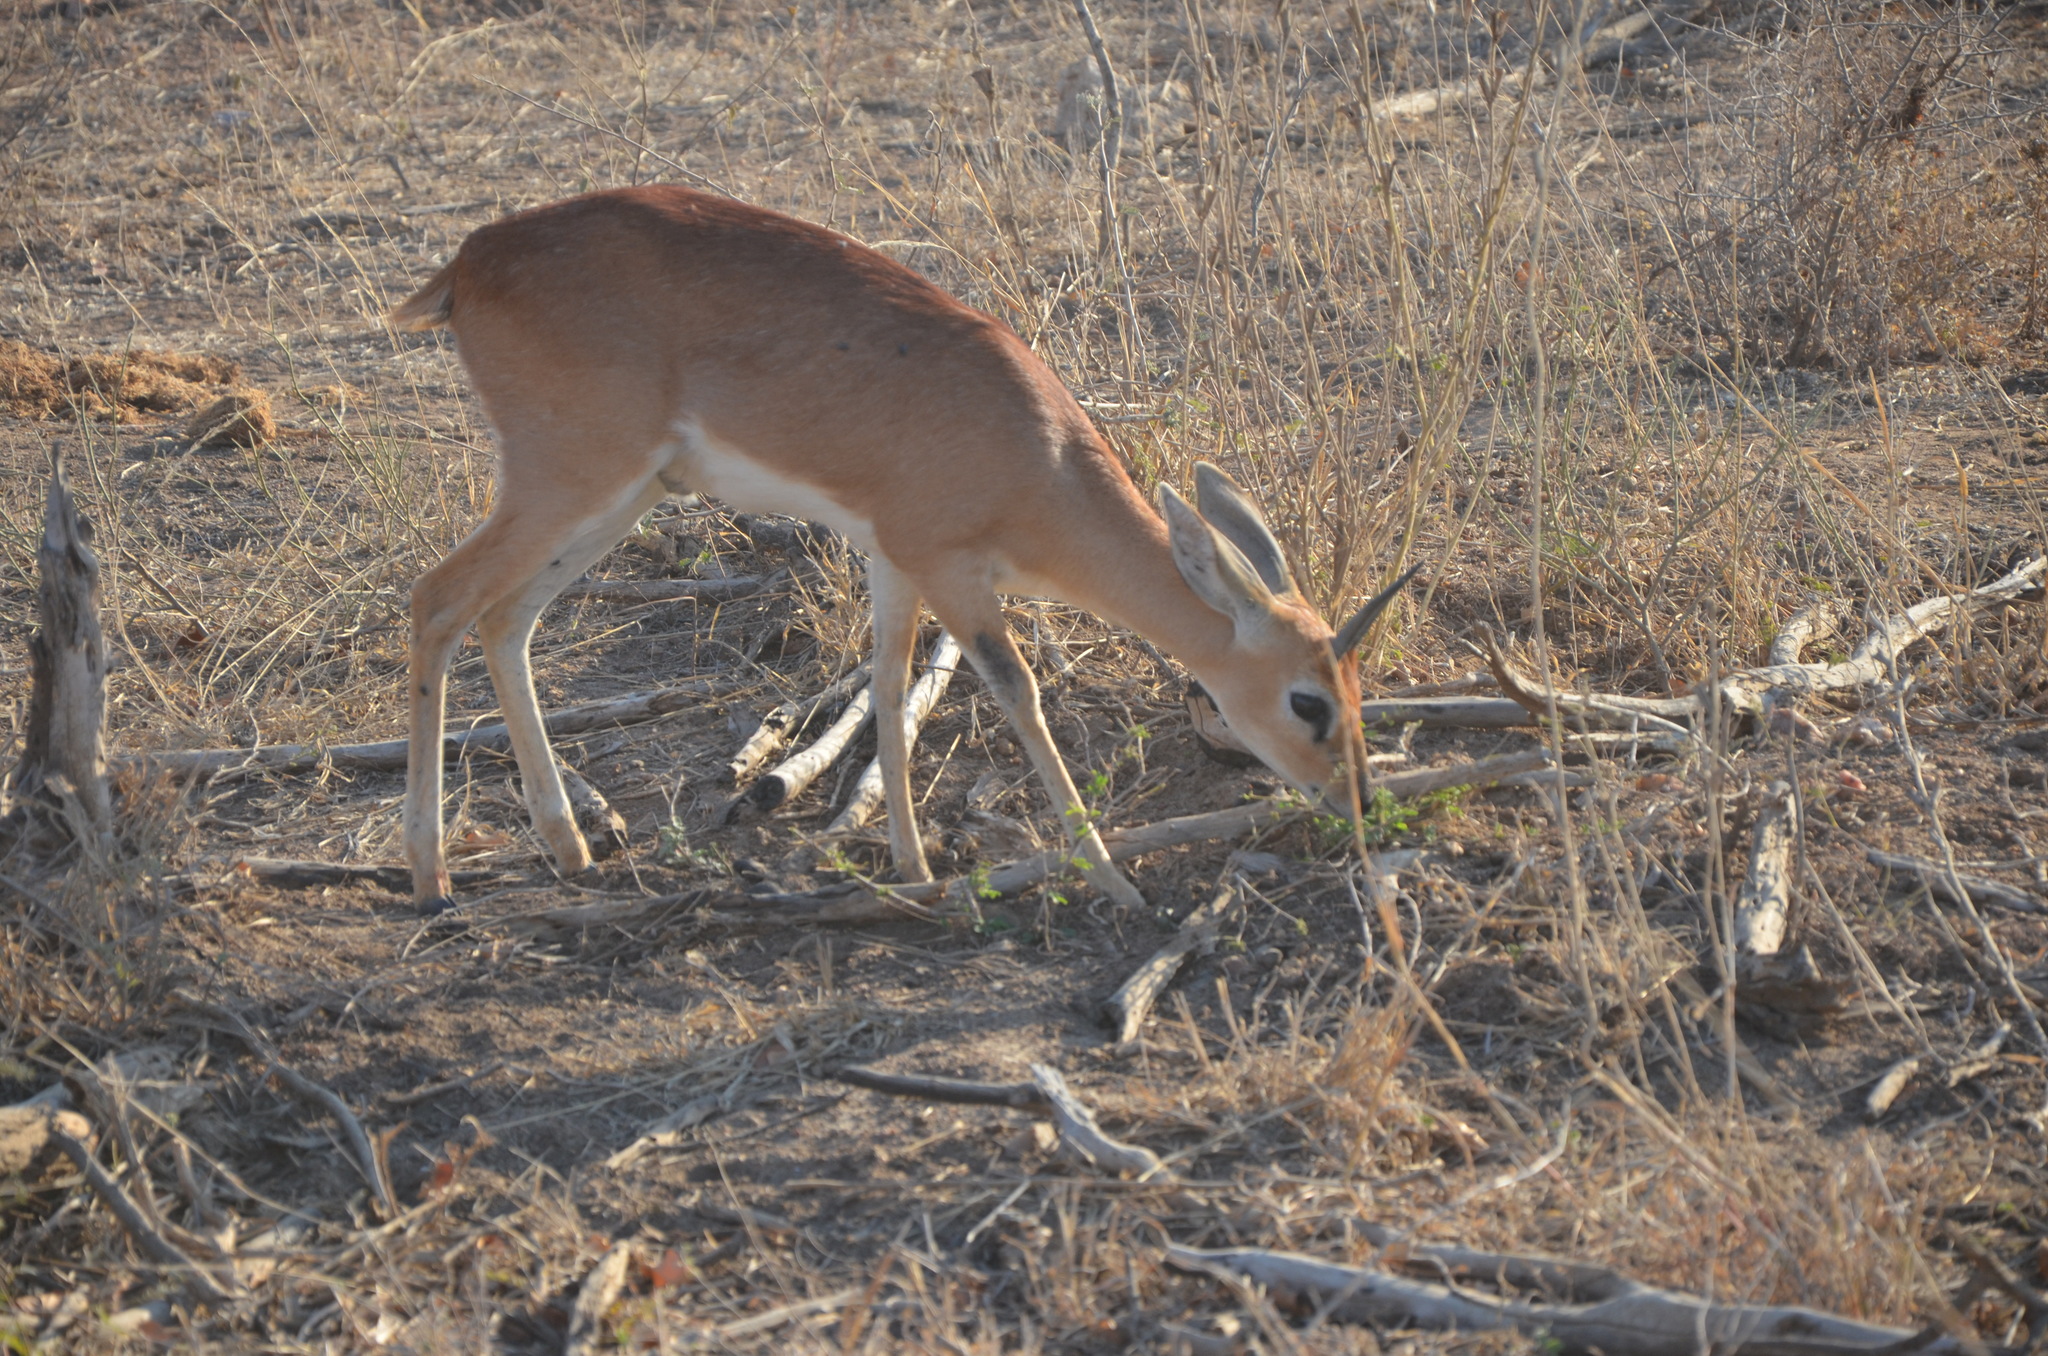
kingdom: Animalia
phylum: Chordata
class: Mammalia
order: Artiodactyla
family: Bovidae
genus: Raphicerus
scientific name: Raphicerus campestris
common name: Steenbok
